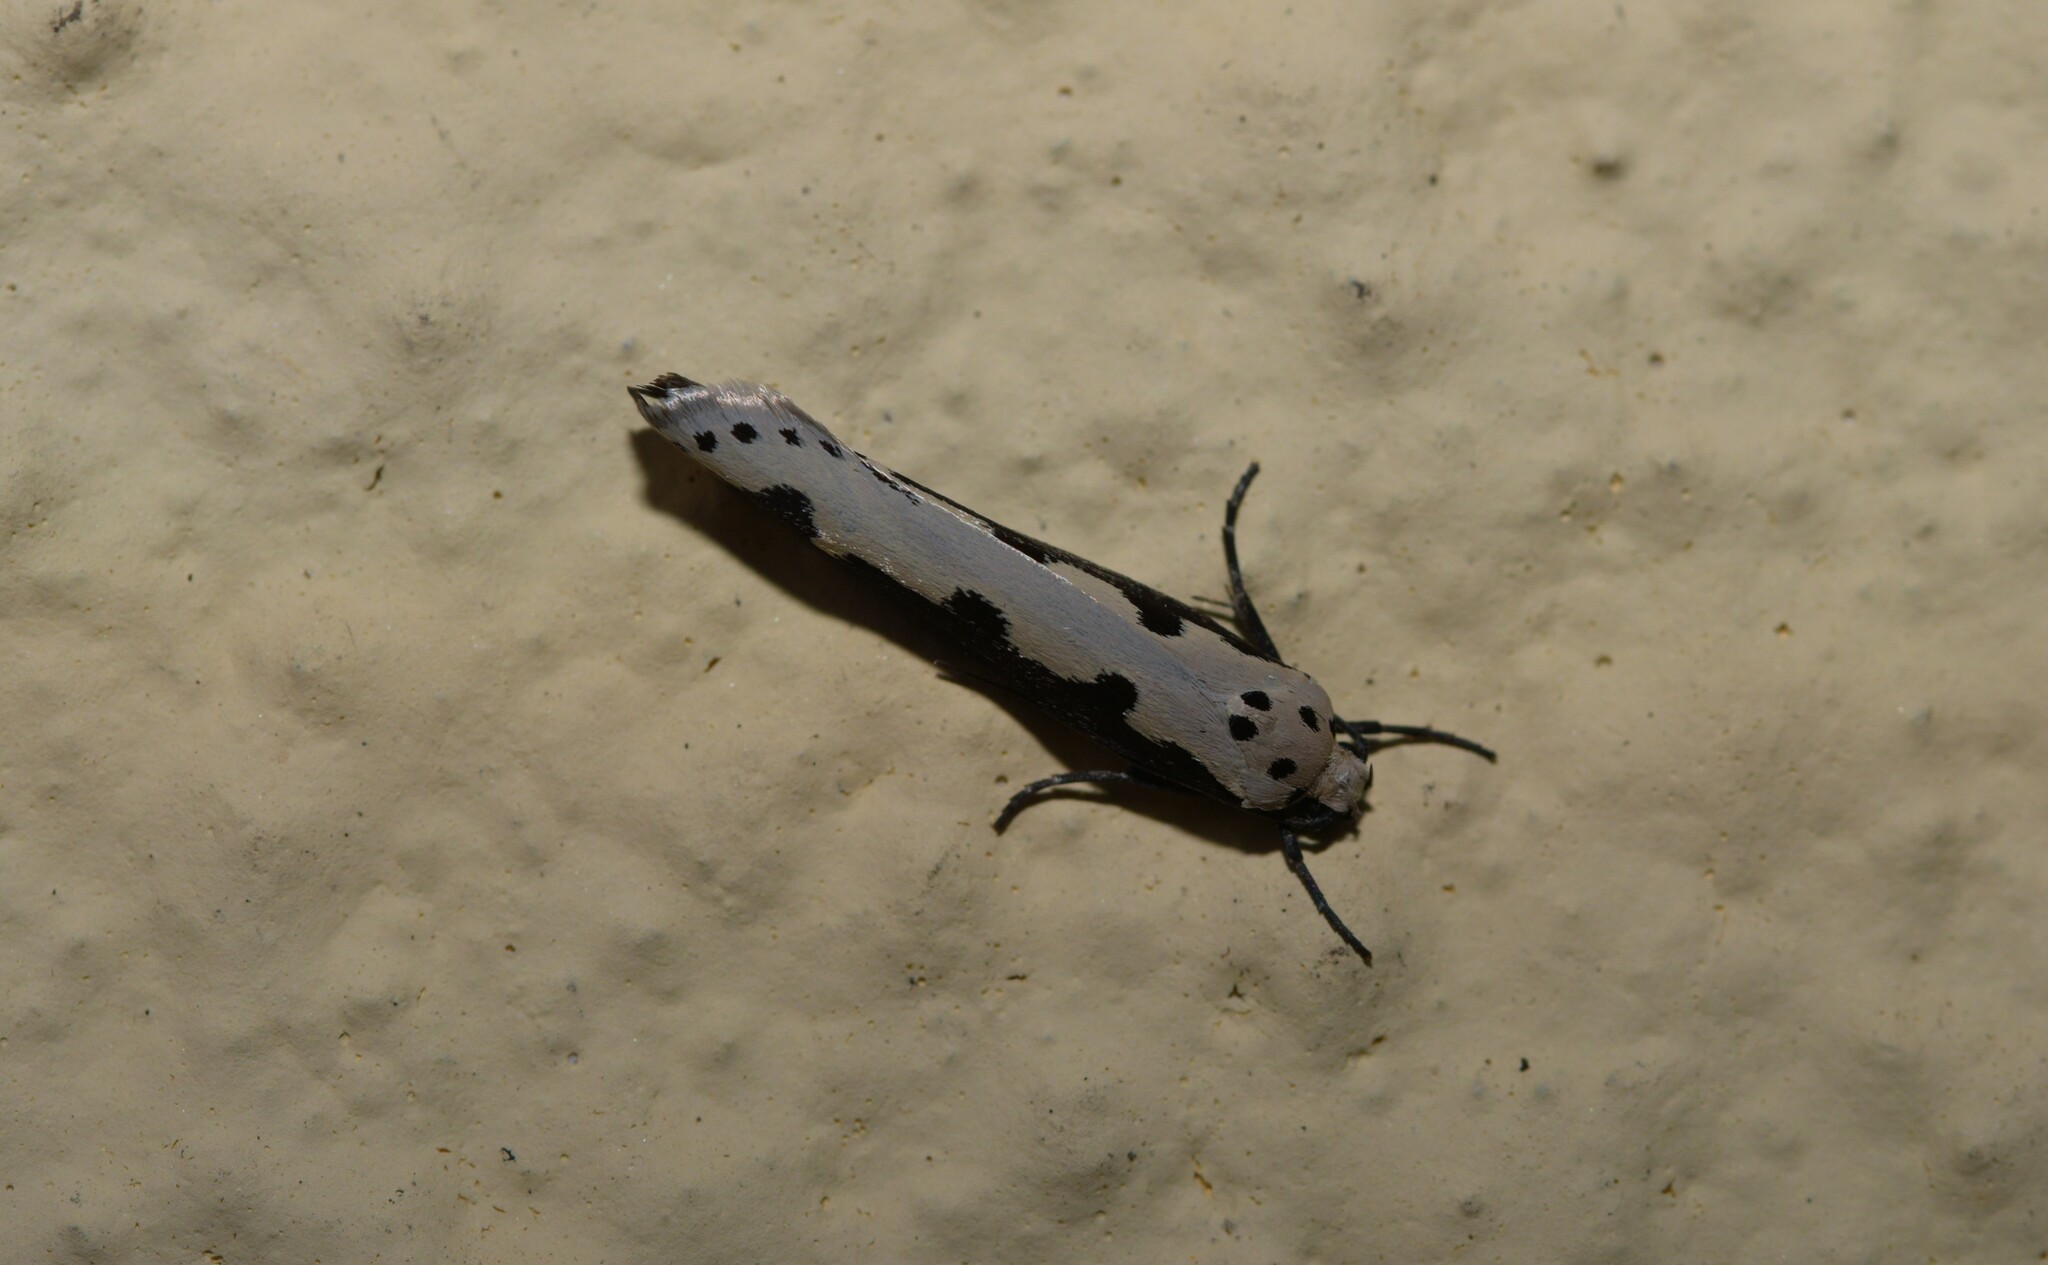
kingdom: Animalia
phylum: Arthropoda
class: Insecta
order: Lepidoptera
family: Ethmiidae
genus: Ethmia
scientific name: Ethmia bipunctella
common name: Bordered ermel
